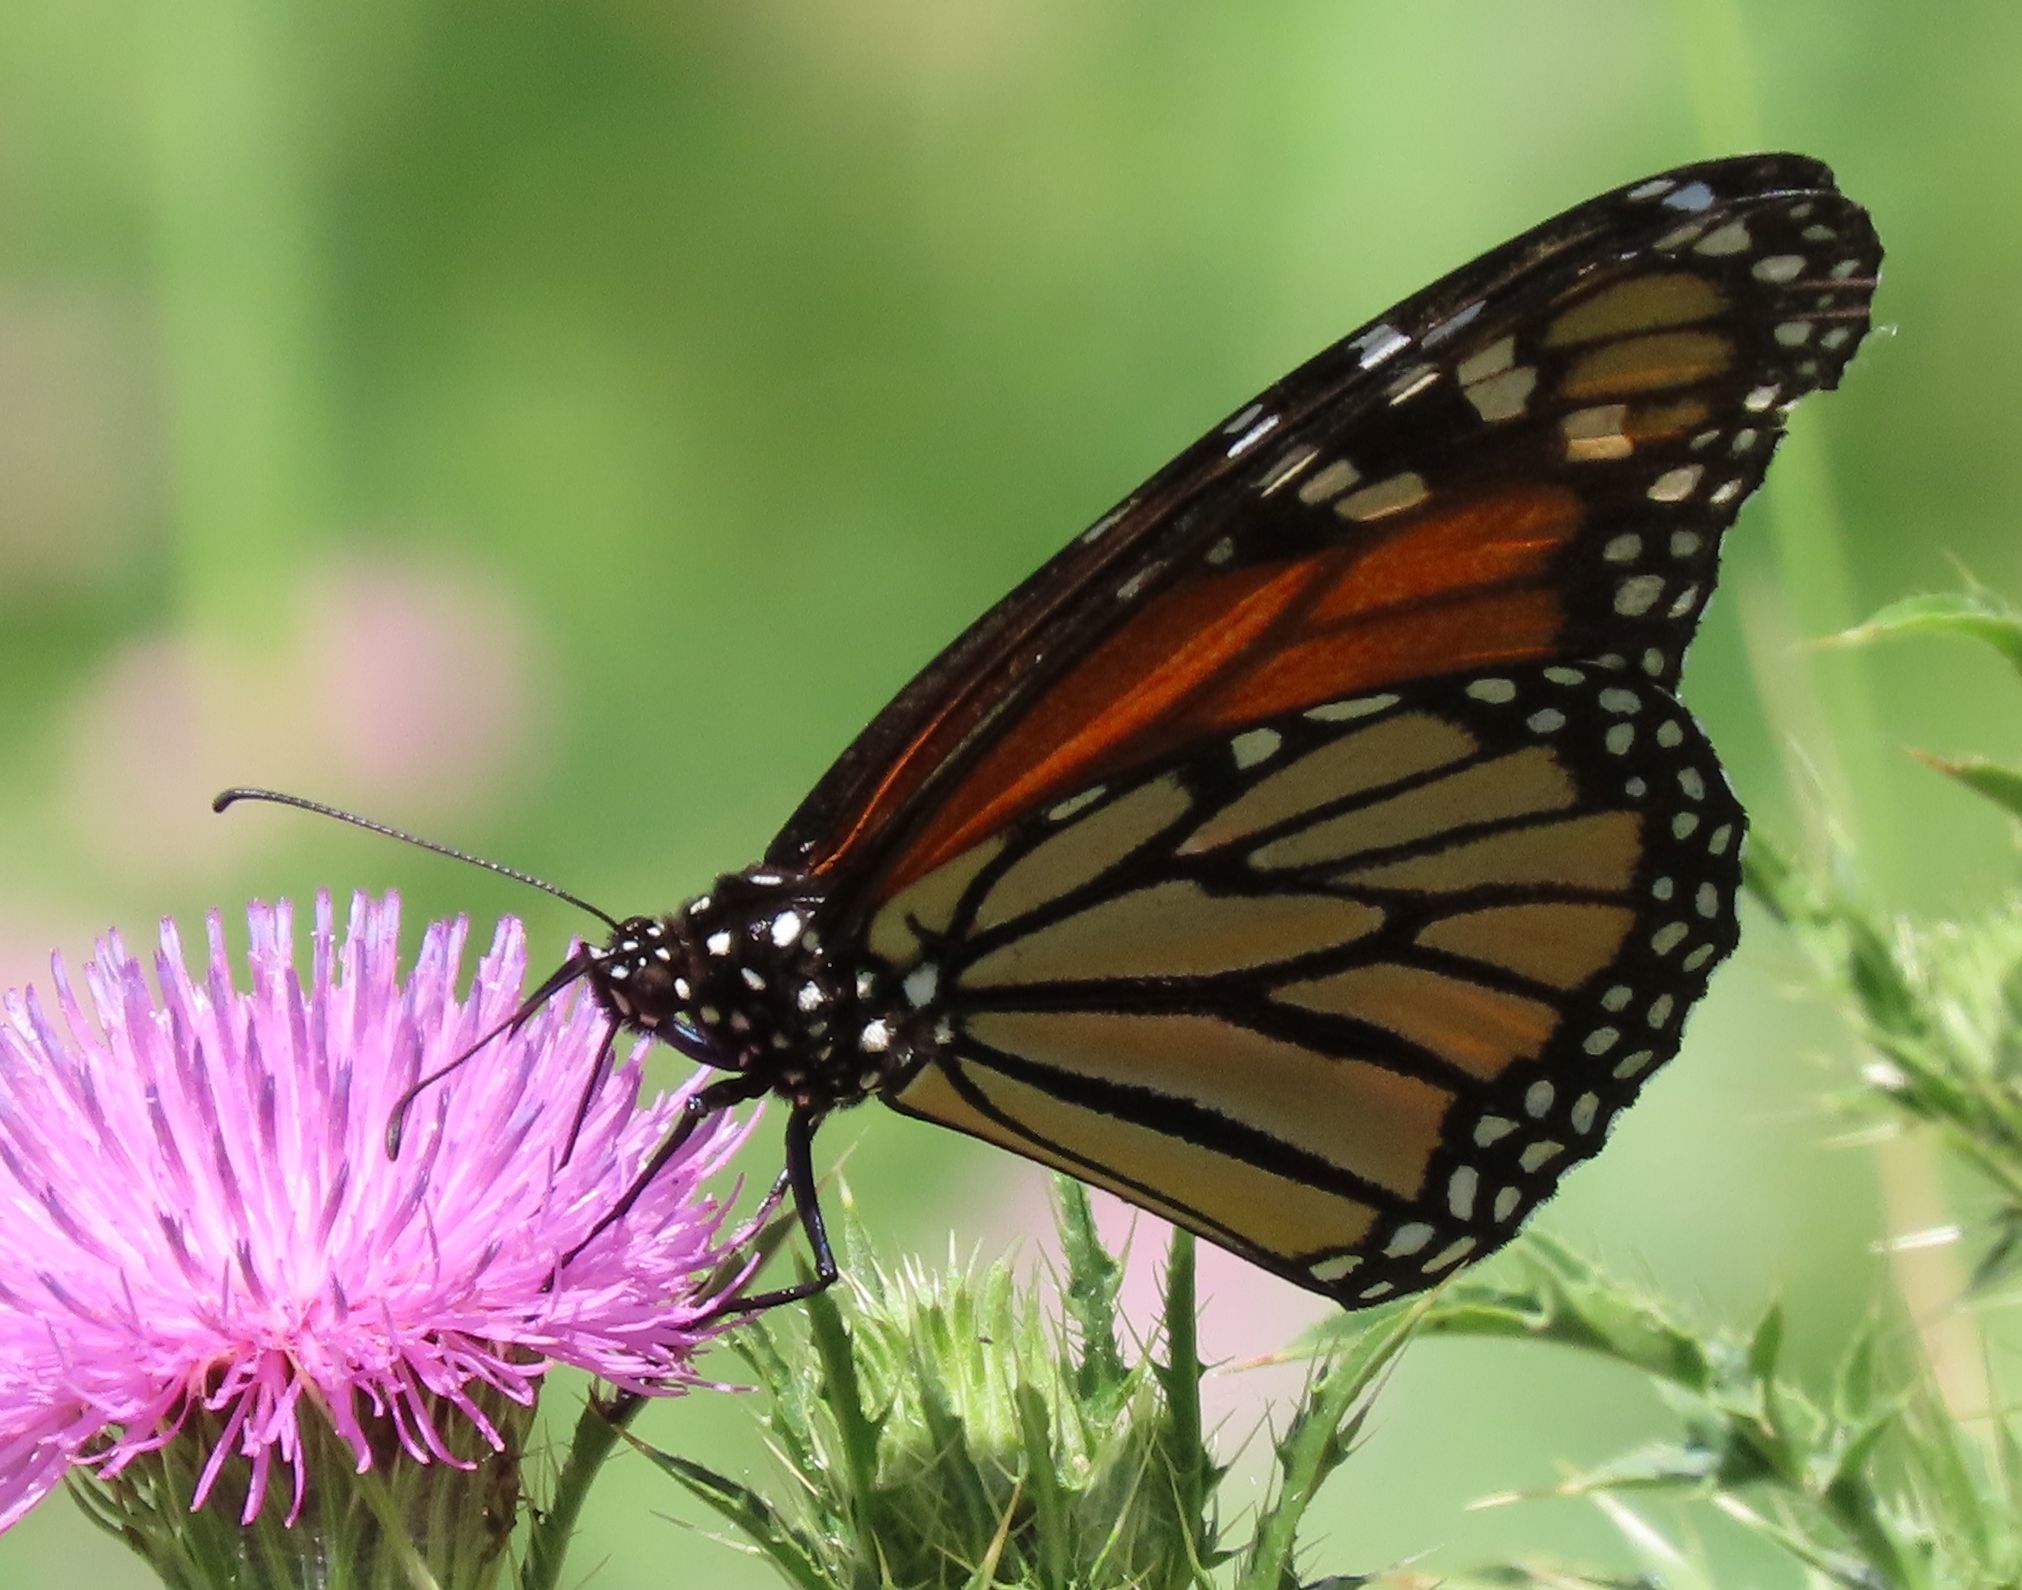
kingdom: Animalia
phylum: Arthropoda
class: Insecta
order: Lepidoptera
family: Nymphalidae
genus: Danaus
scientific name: Danaus plexippus
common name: Monarch
